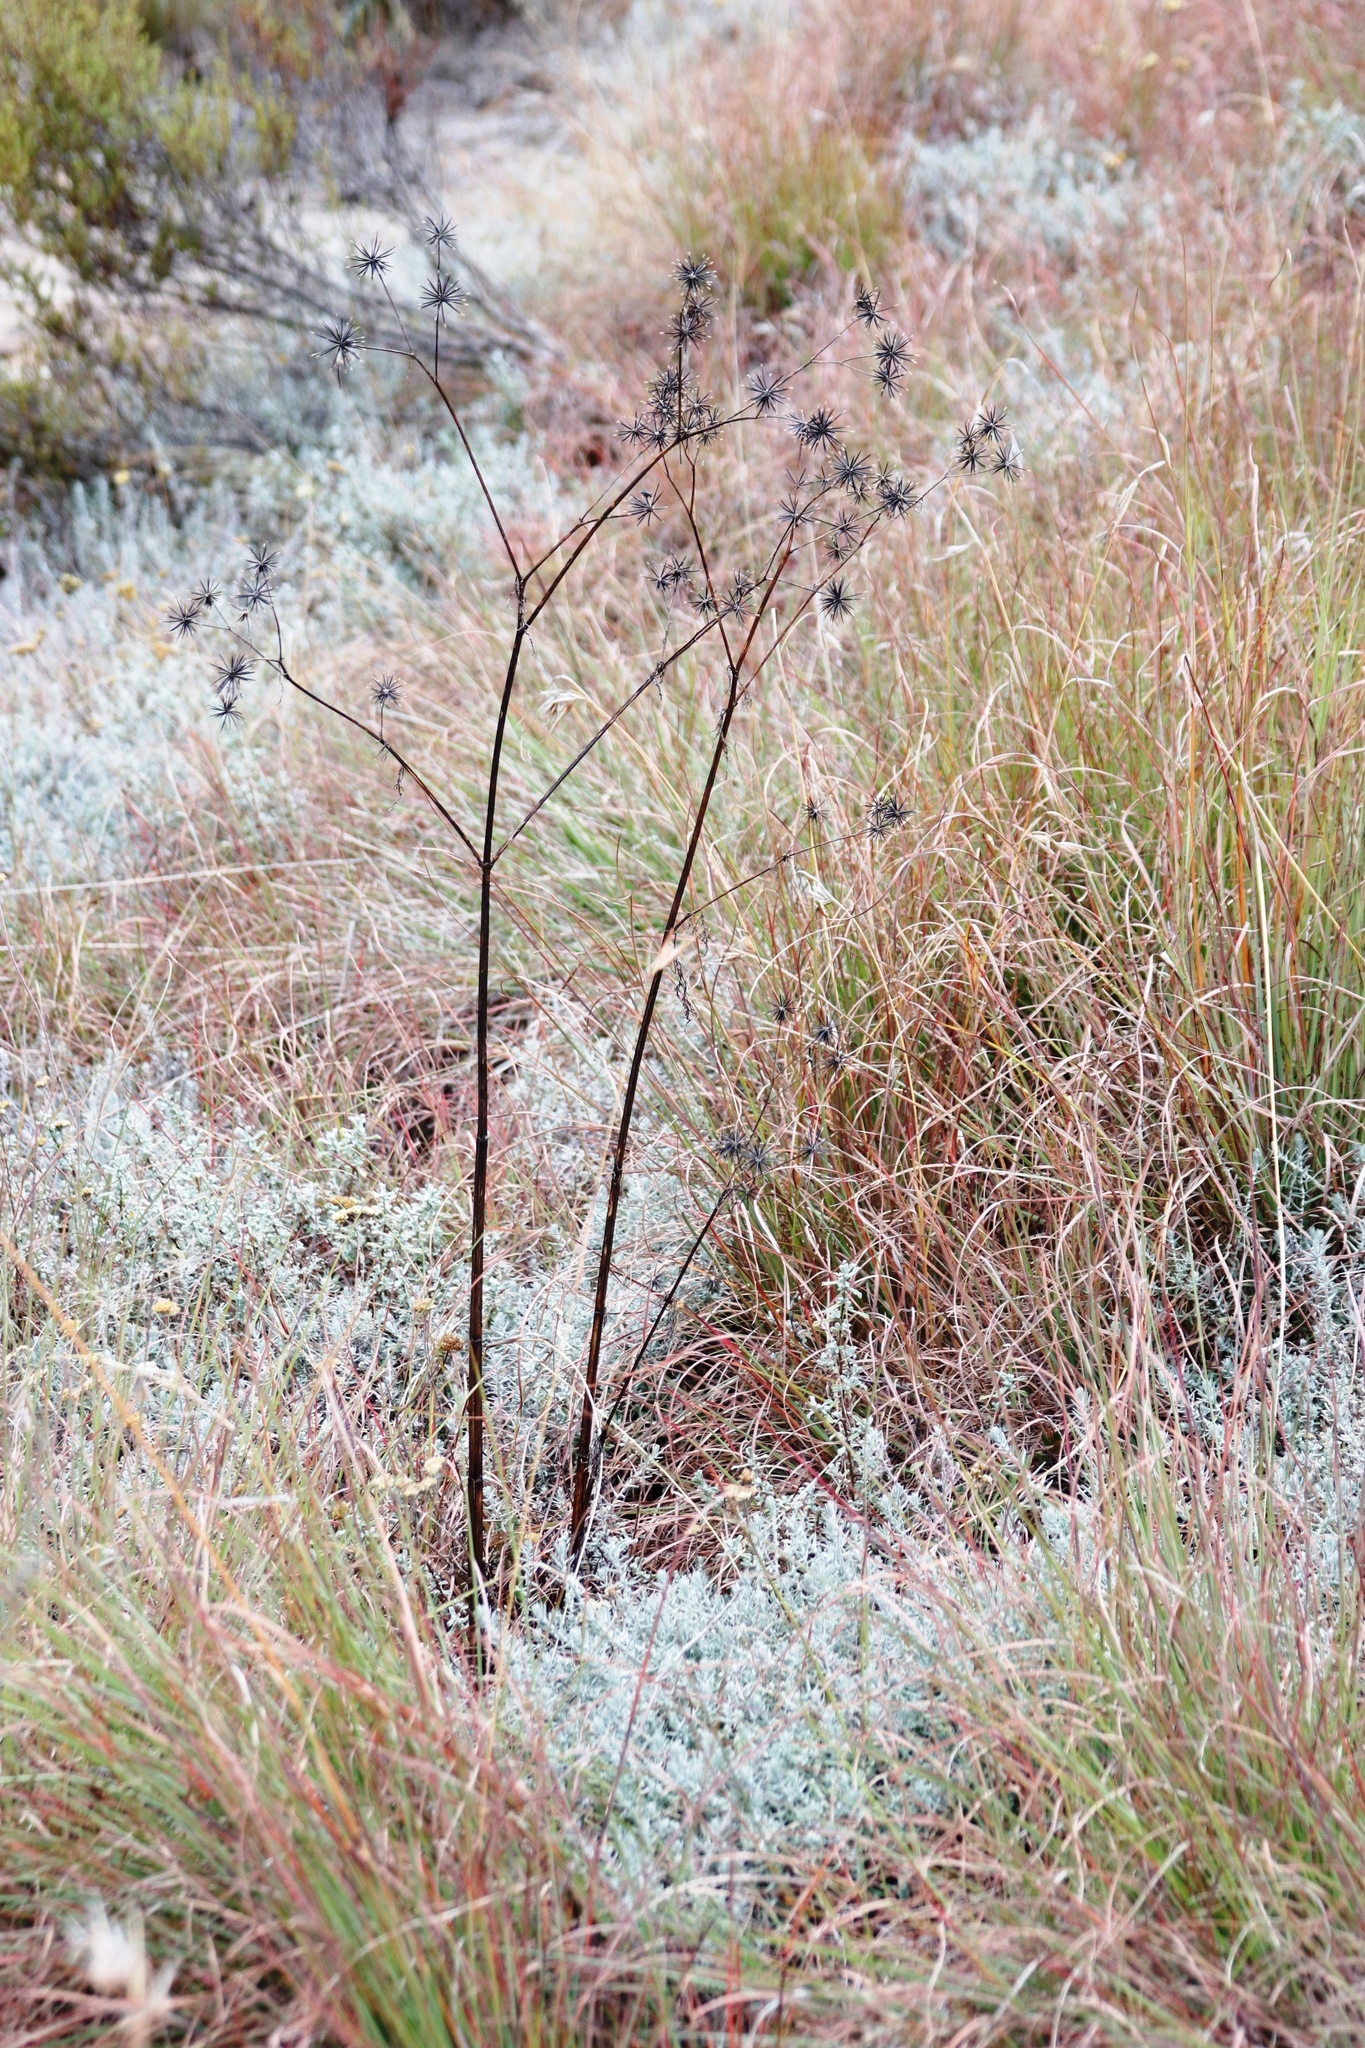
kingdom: Plantae
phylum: Tracheophyta
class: Magnoliopsida
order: Asterales
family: Asteraceae
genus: Bidens
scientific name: Bidens pilosa
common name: Black-jack
